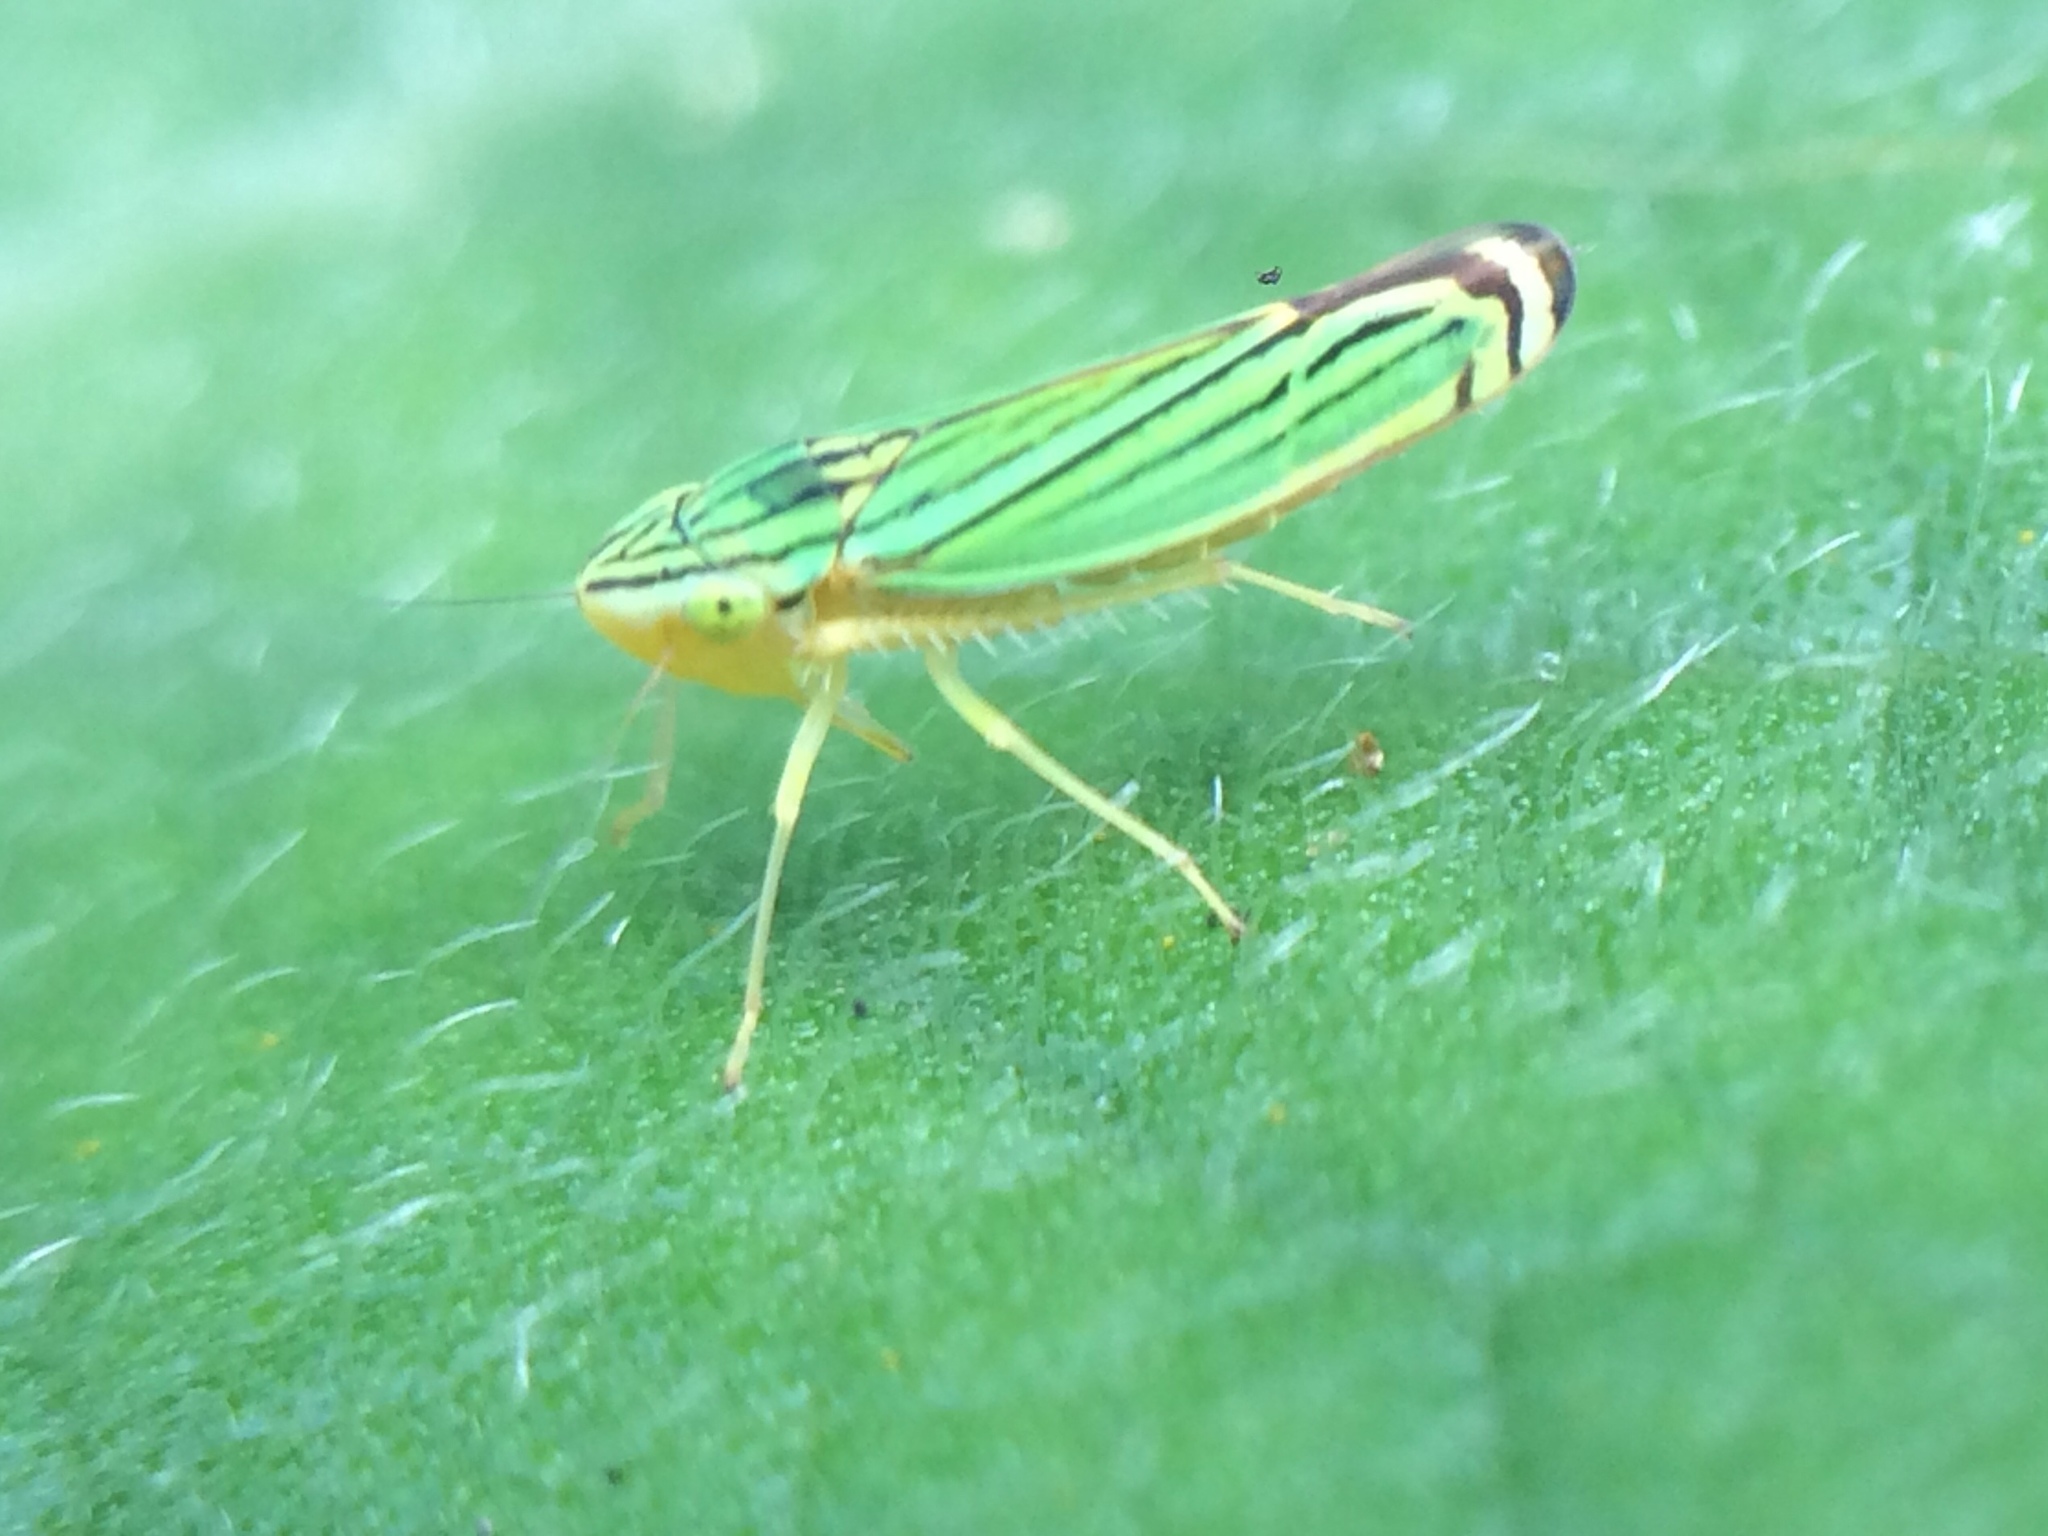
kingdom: Animalia
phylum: Arthropoda
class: Insecta
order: Hemiptera
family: Cicadellidae
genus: Sibovia
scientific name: Sibovia nielsoni
